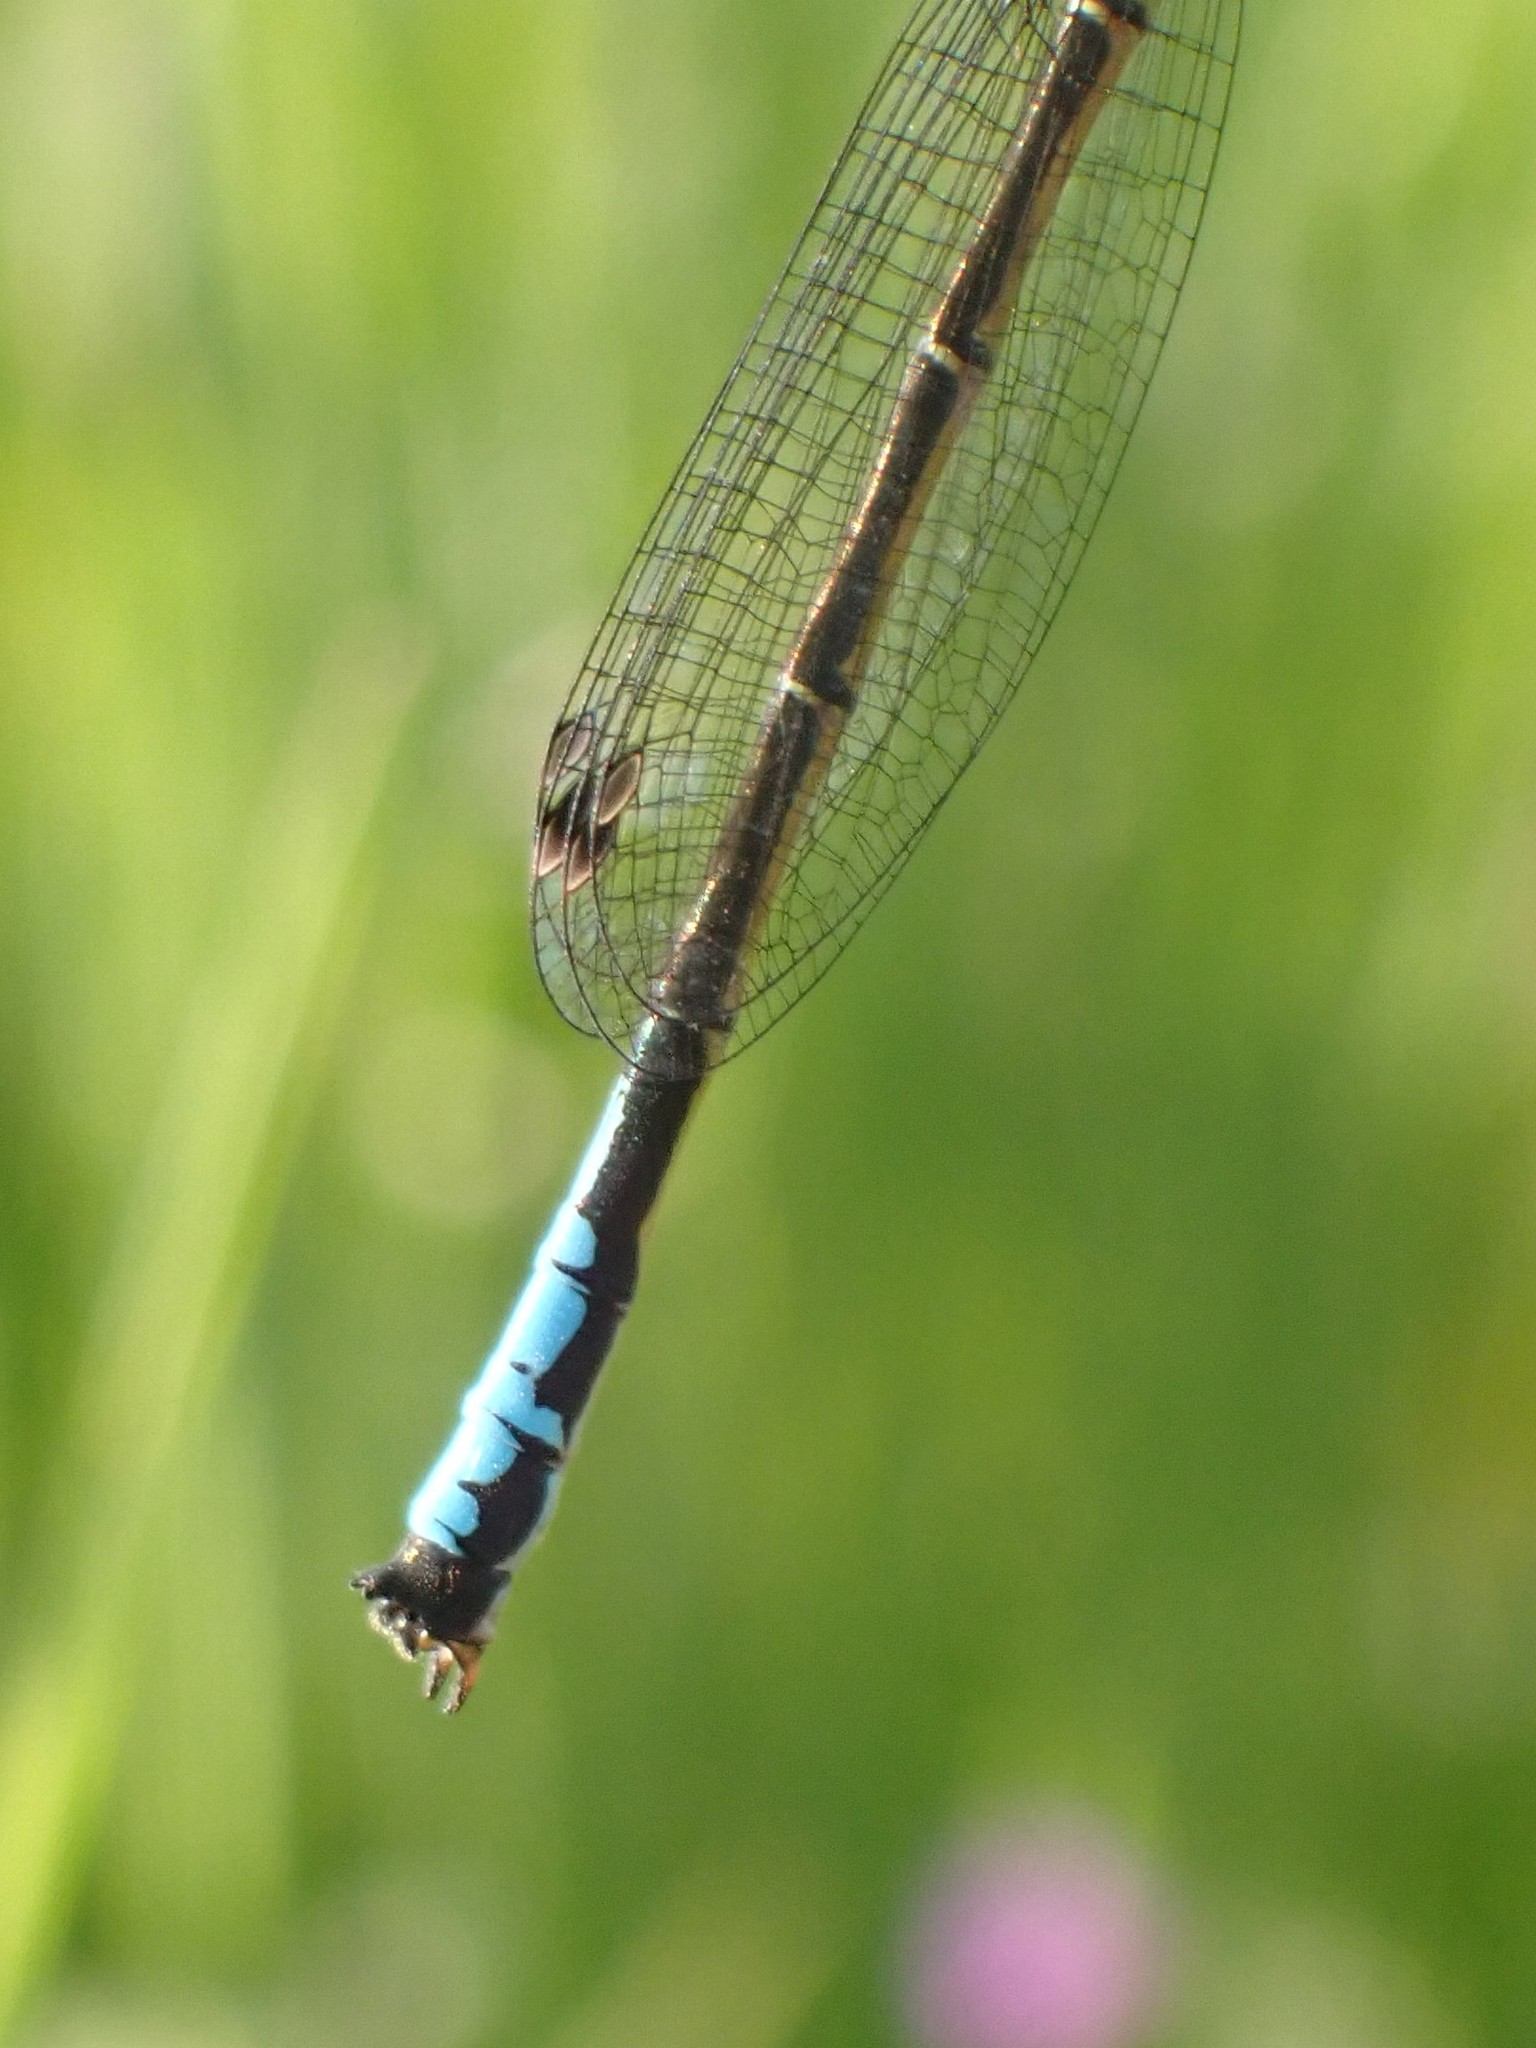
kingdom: Animalia
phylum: Arthropoda
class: Insecta
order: Odonata
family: Coenagrionidae
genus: Ischnura
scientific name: Ischnura erratica
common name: Swift forktail
